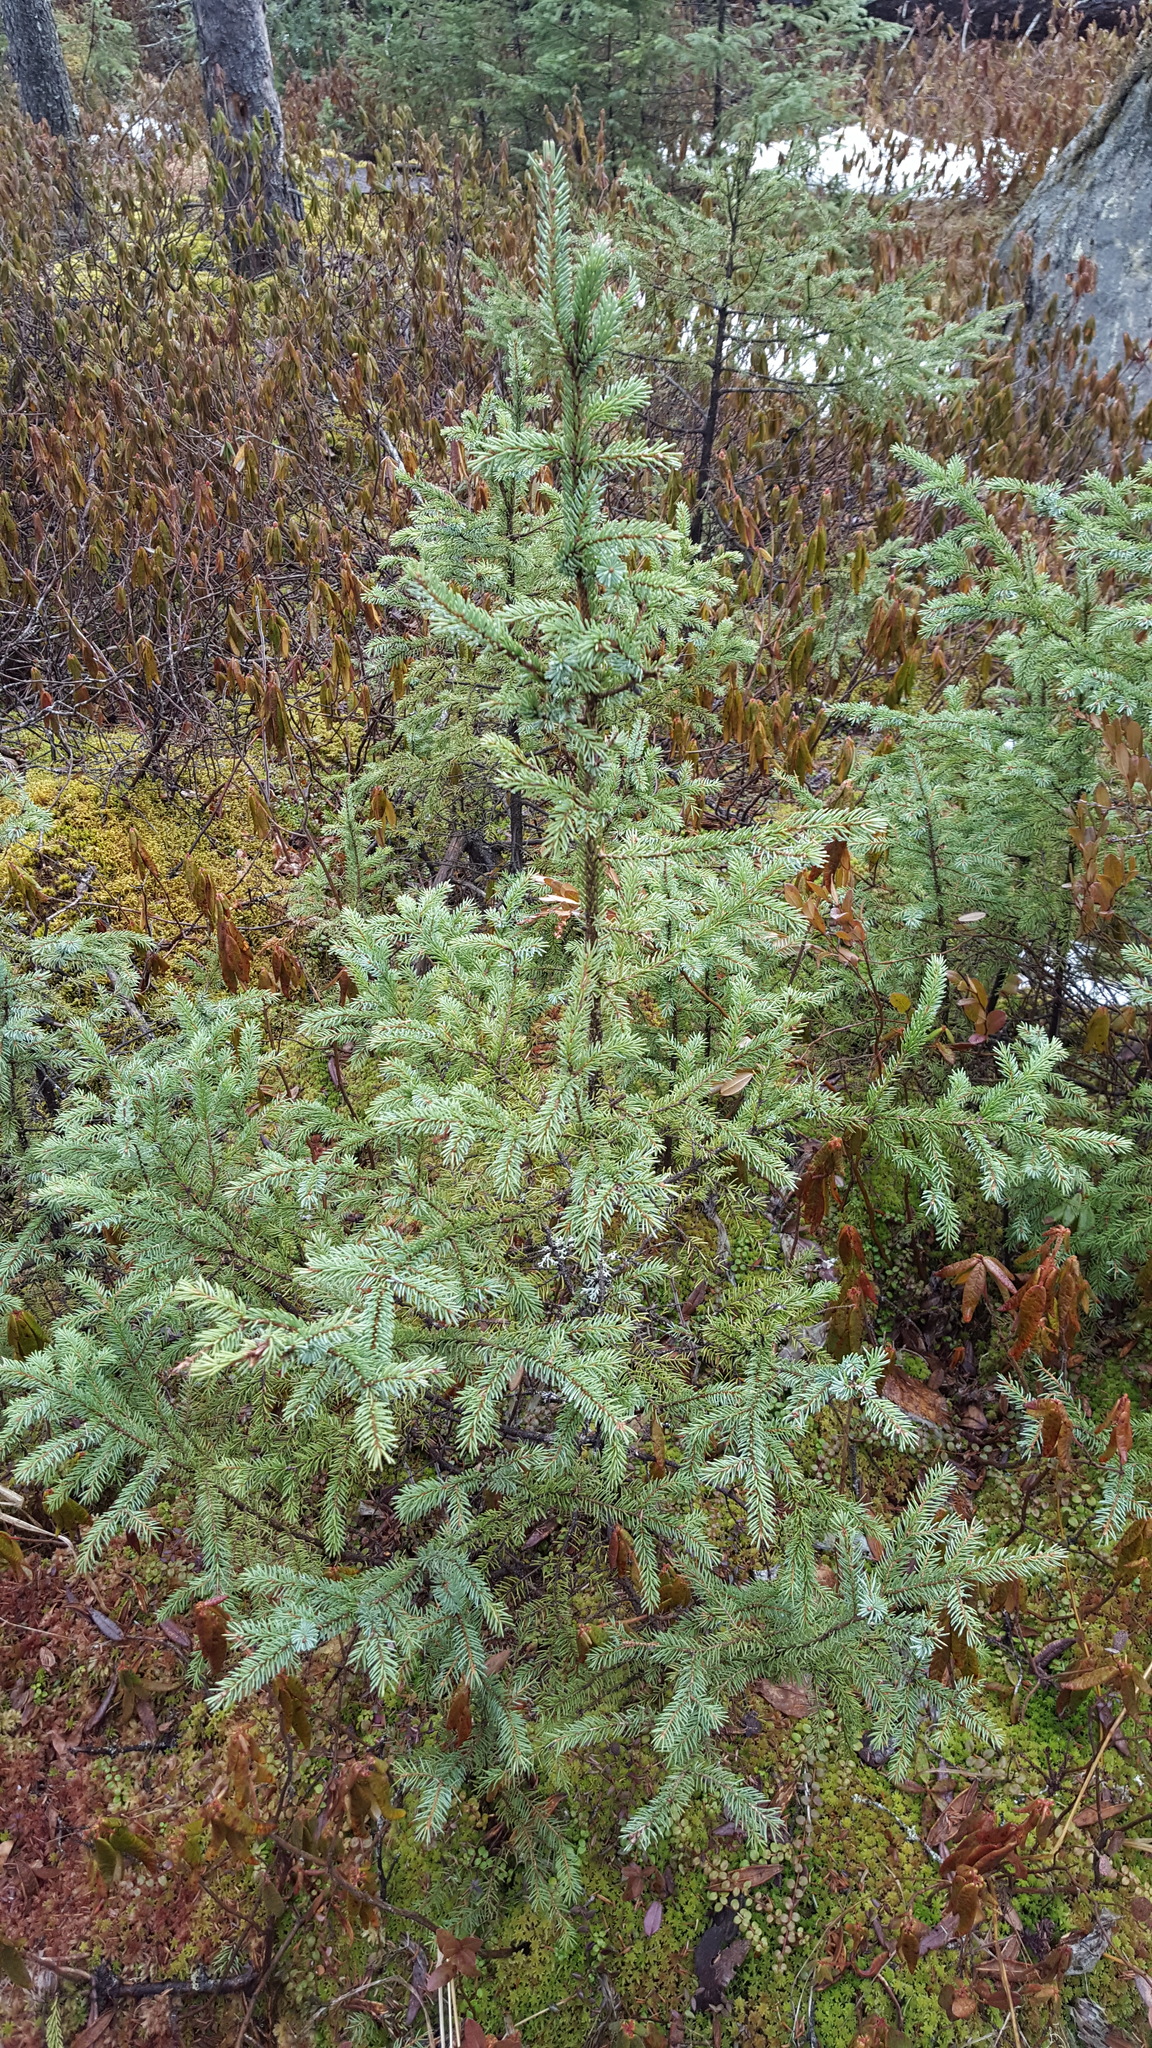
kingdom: Plantae
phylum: Tracheophyta
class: Pinopsida
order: Pinales
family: Pinaceae
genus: Picea
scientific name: Picea mariana
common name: Black spruce
